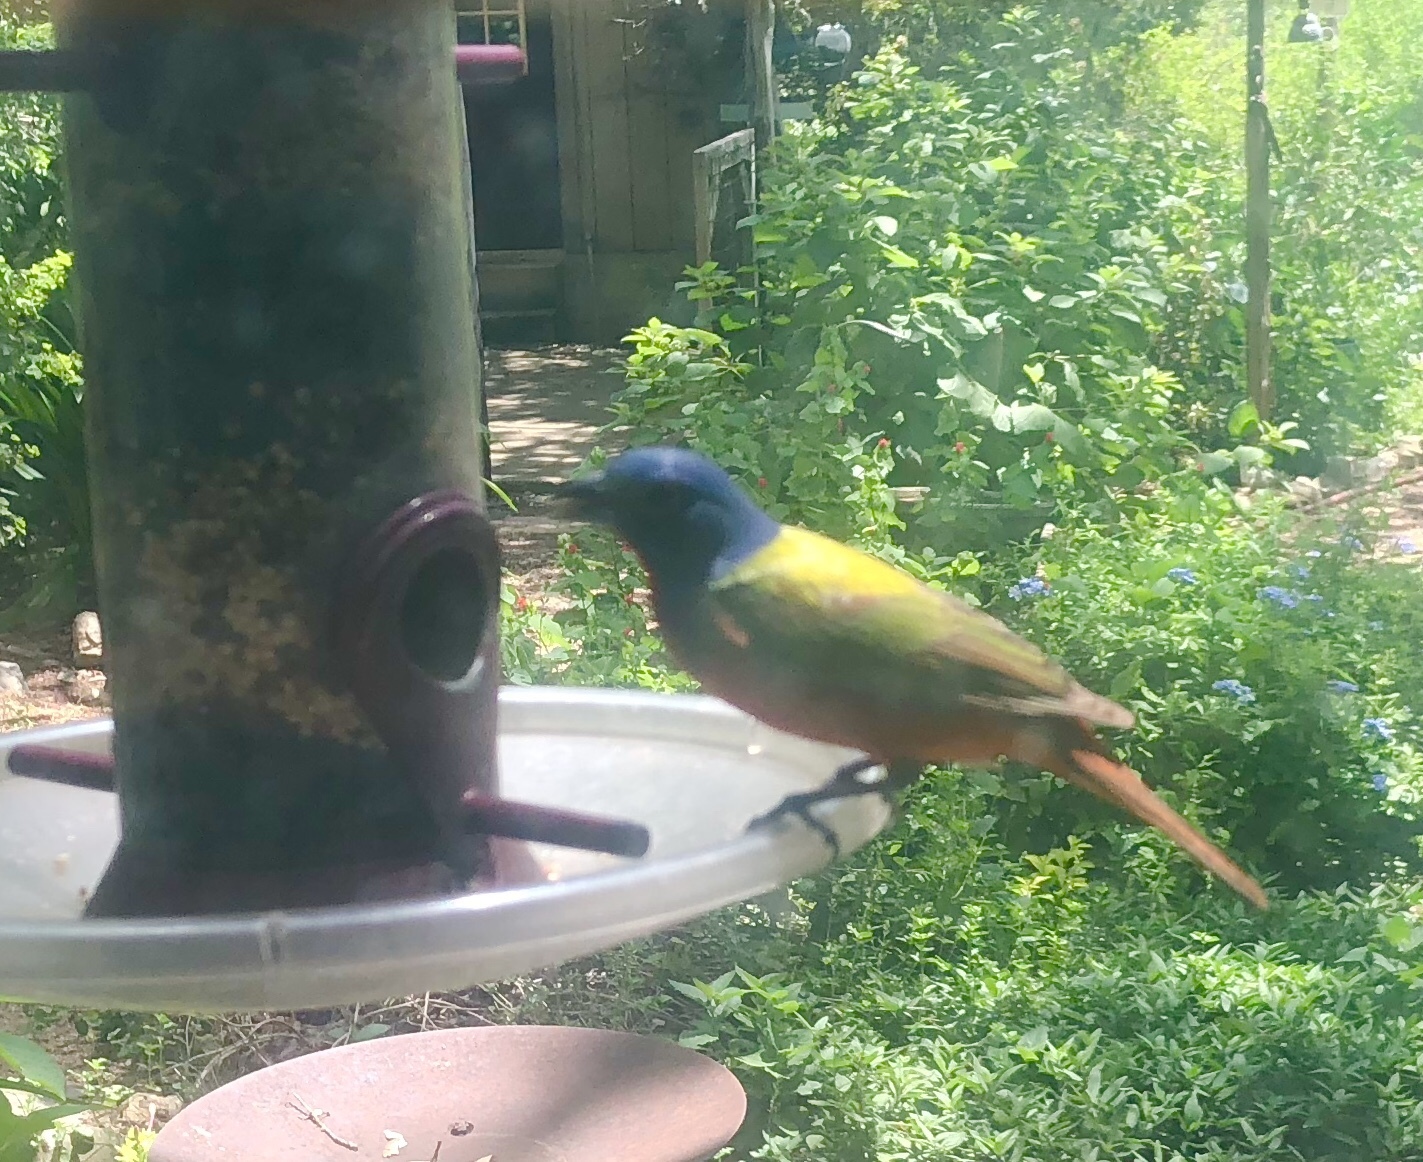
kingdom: Animalia
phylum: Chordata
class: Aves
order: Passeriformes
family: Cardinalidae
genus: Passerina
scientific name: Passerina ciris
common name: Painted bunting
